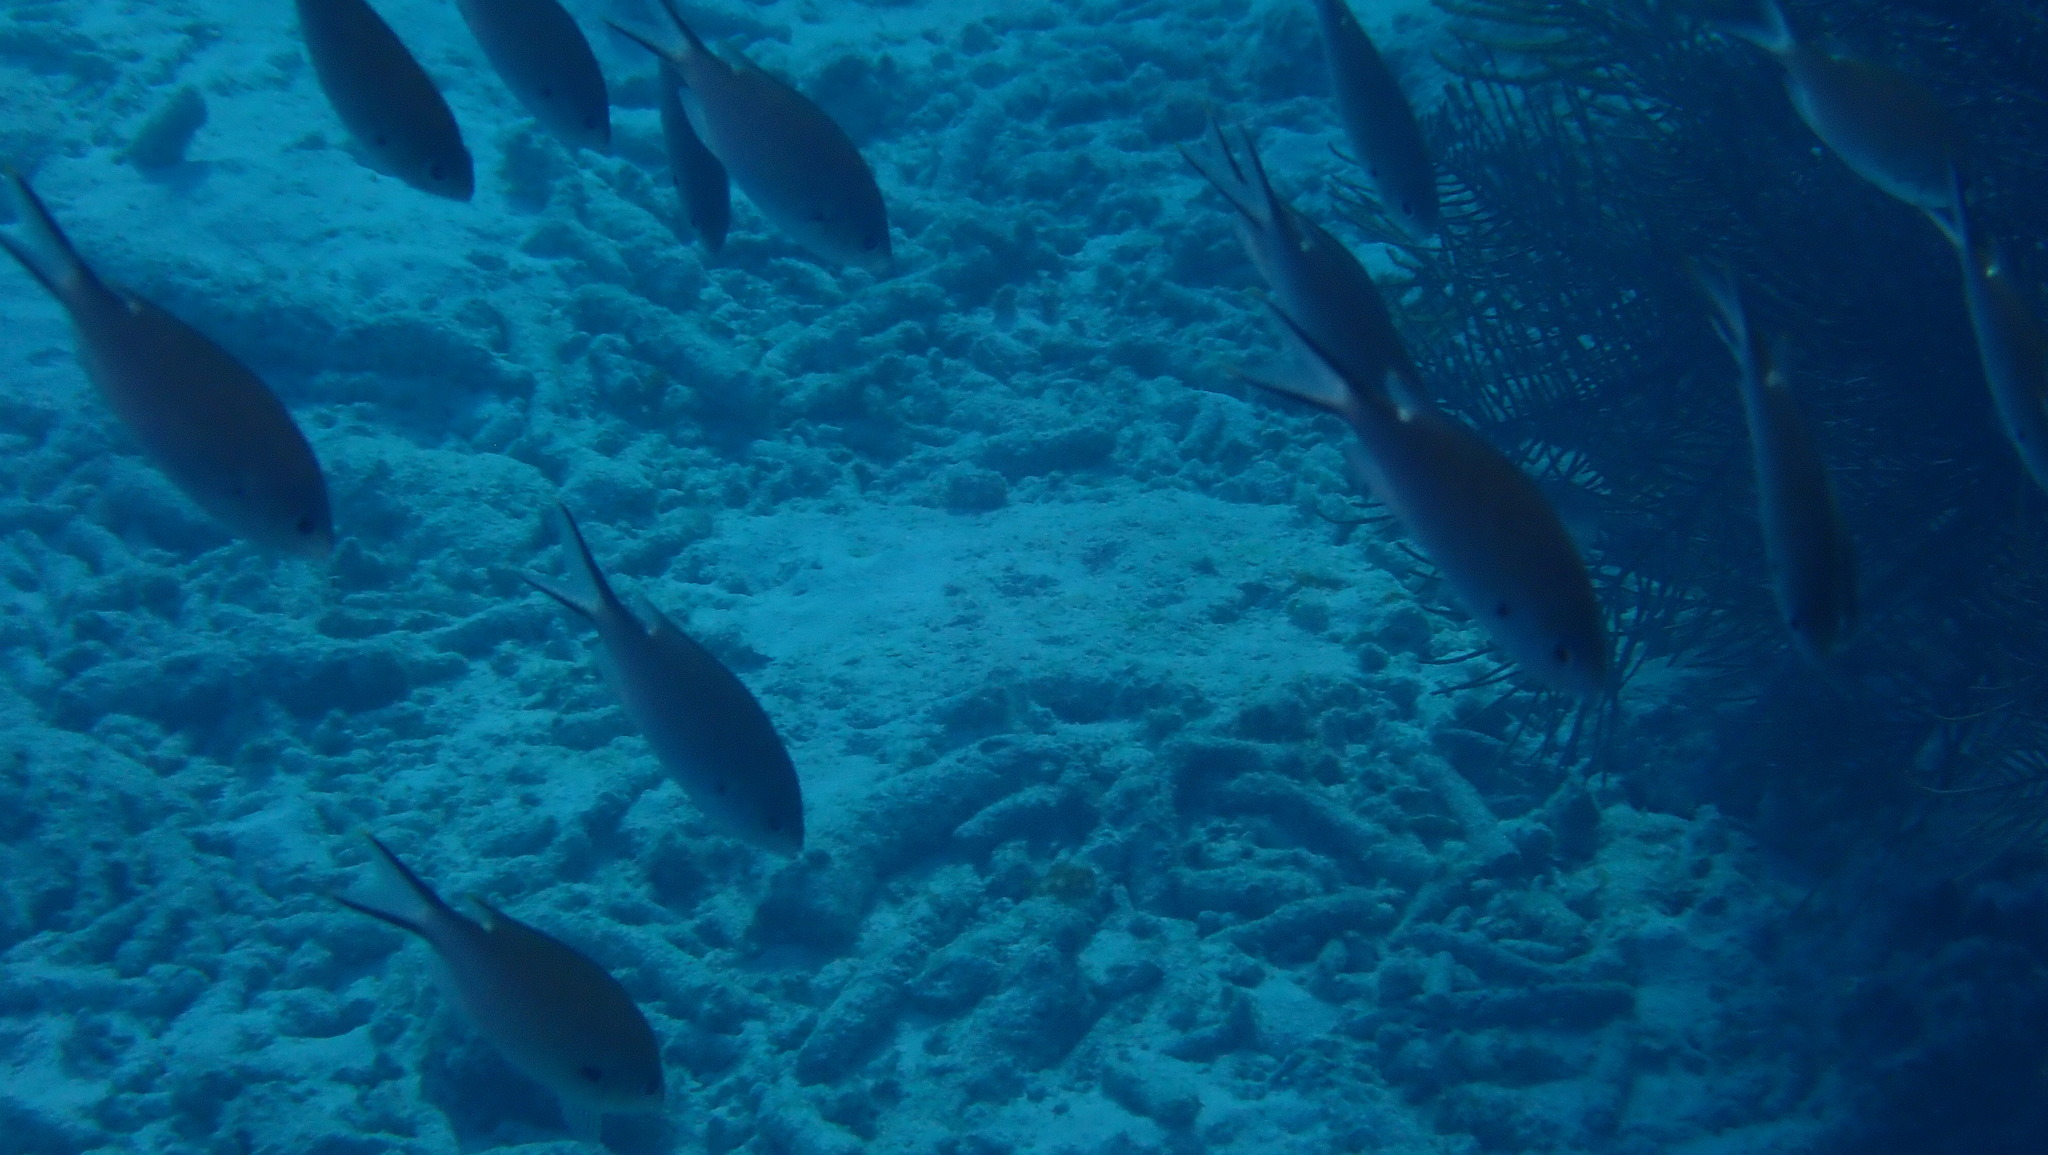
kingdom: Animalia
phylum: Chordata
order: Perciformes
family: Pomacentridae
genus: Chromis
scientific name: Chromis multilineata
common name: Brown chromis
